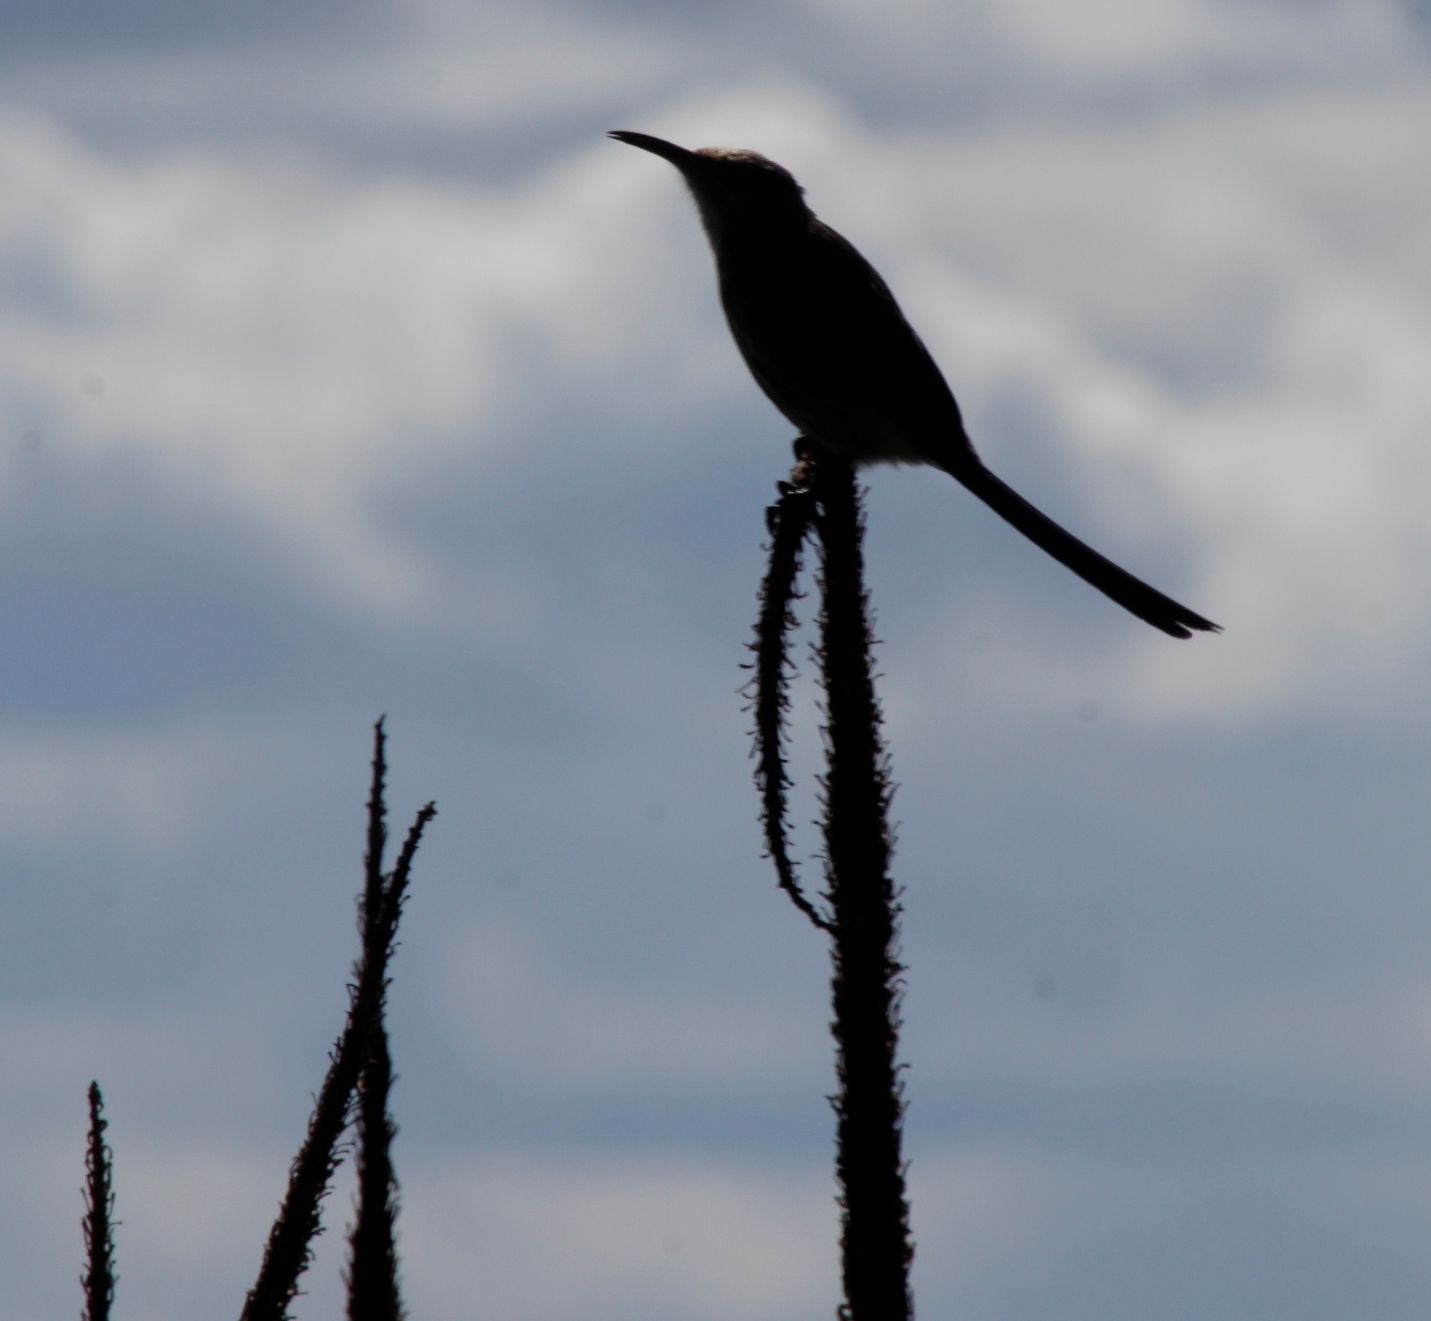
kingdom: Animalia
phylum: Chordata
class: Aves
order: Passeriformes
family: Promeropidae
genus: Promerops
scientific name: Promerops cafer
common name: Cape sugarbird
